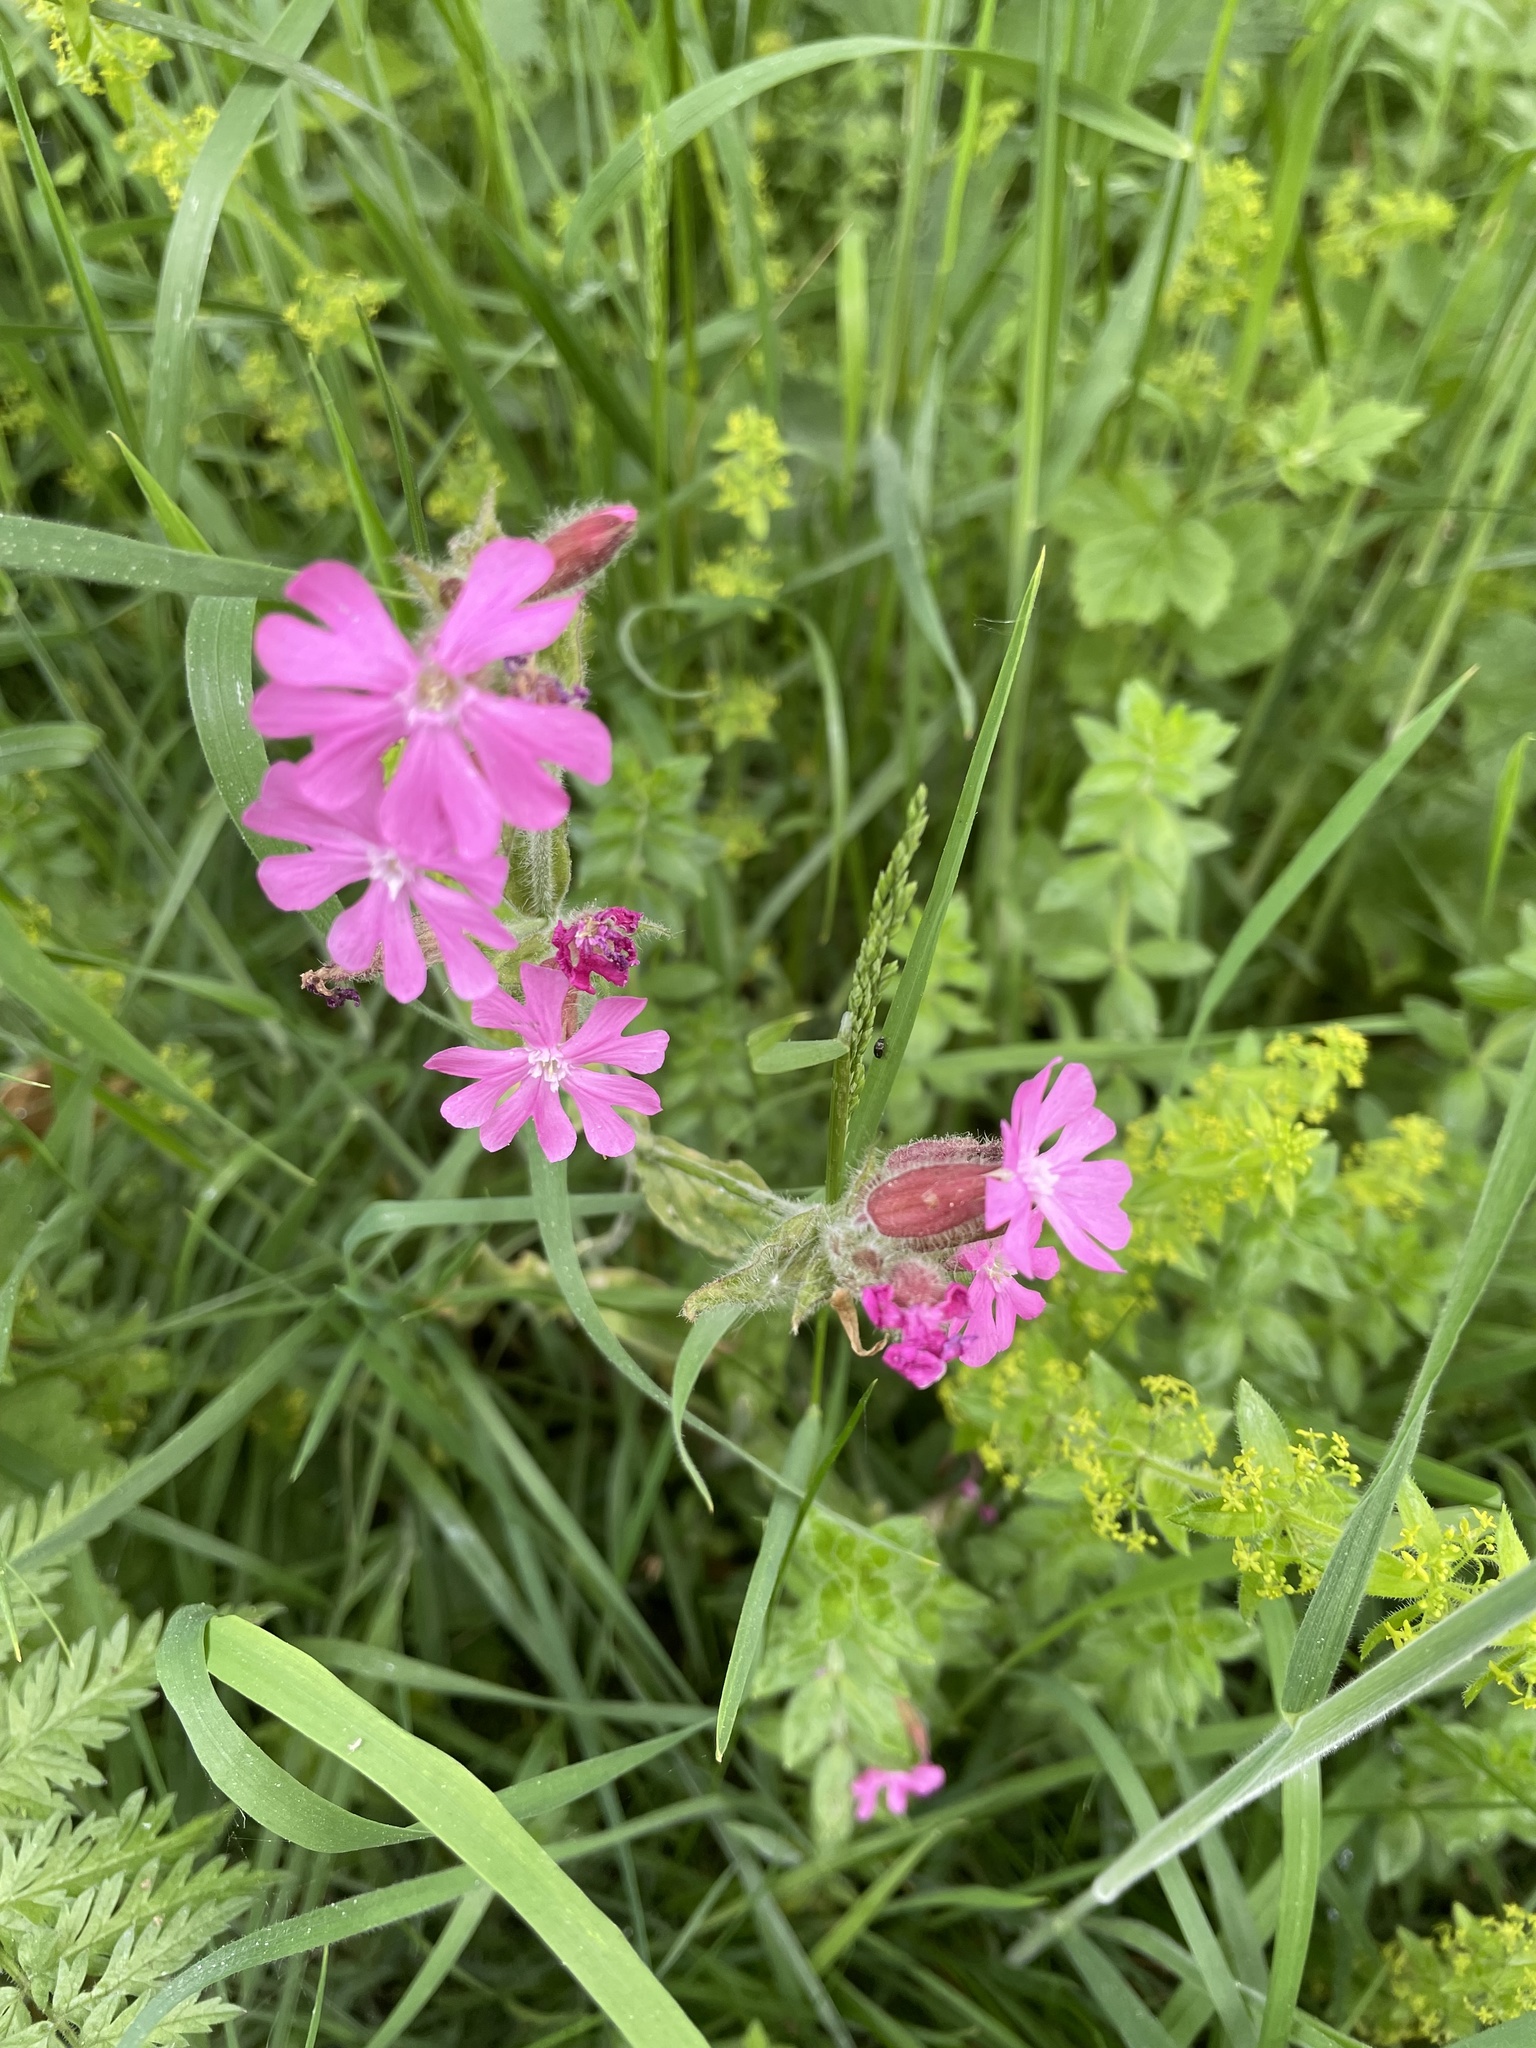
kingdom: Plantae
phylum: Tracheophyta
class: Magnoliopsida
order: Caryophyllales
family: Caryophyllaceae
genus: Silene
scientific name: Silene dioica
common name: Red campion
